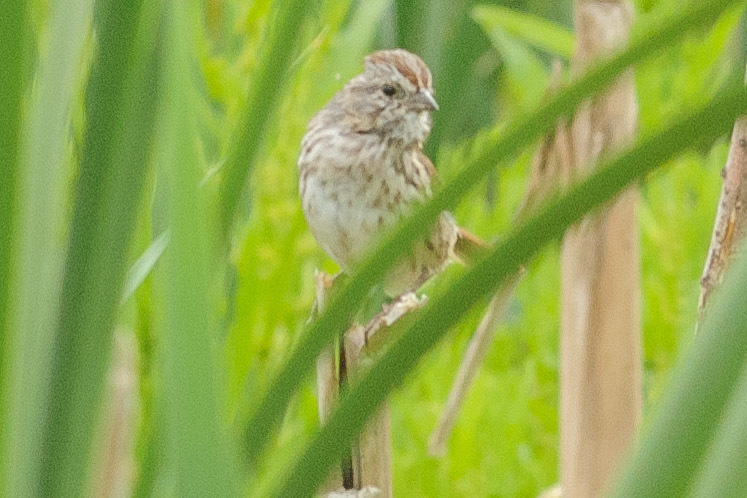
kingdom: Animalia
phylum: Chordata
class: Aves
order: Passeriformes
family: Passerellidae
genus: Melospiza
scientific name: Melospiza melodia
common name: Song sparrow
